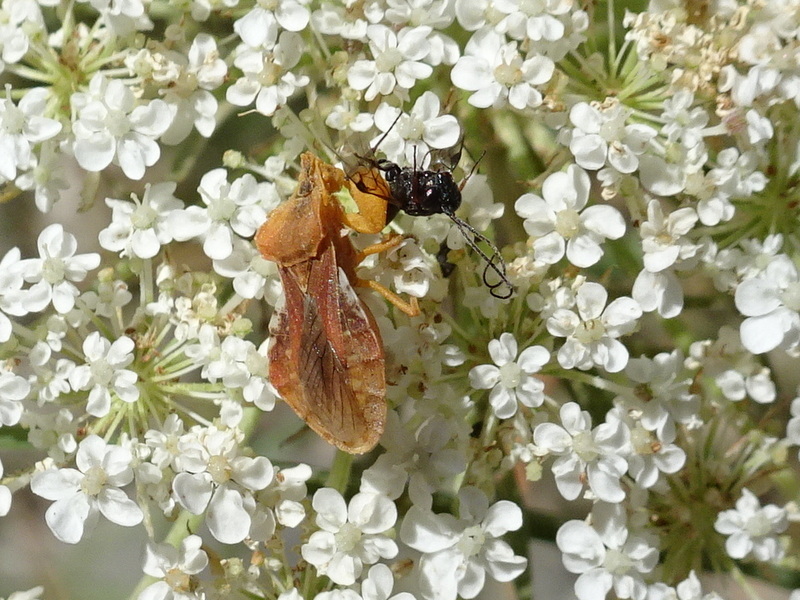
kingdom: Animalia
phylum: Arthropoda
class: Insecta
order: Hemiptera
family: Reduviidae
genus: Phymata
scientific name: Phymata crassipes
